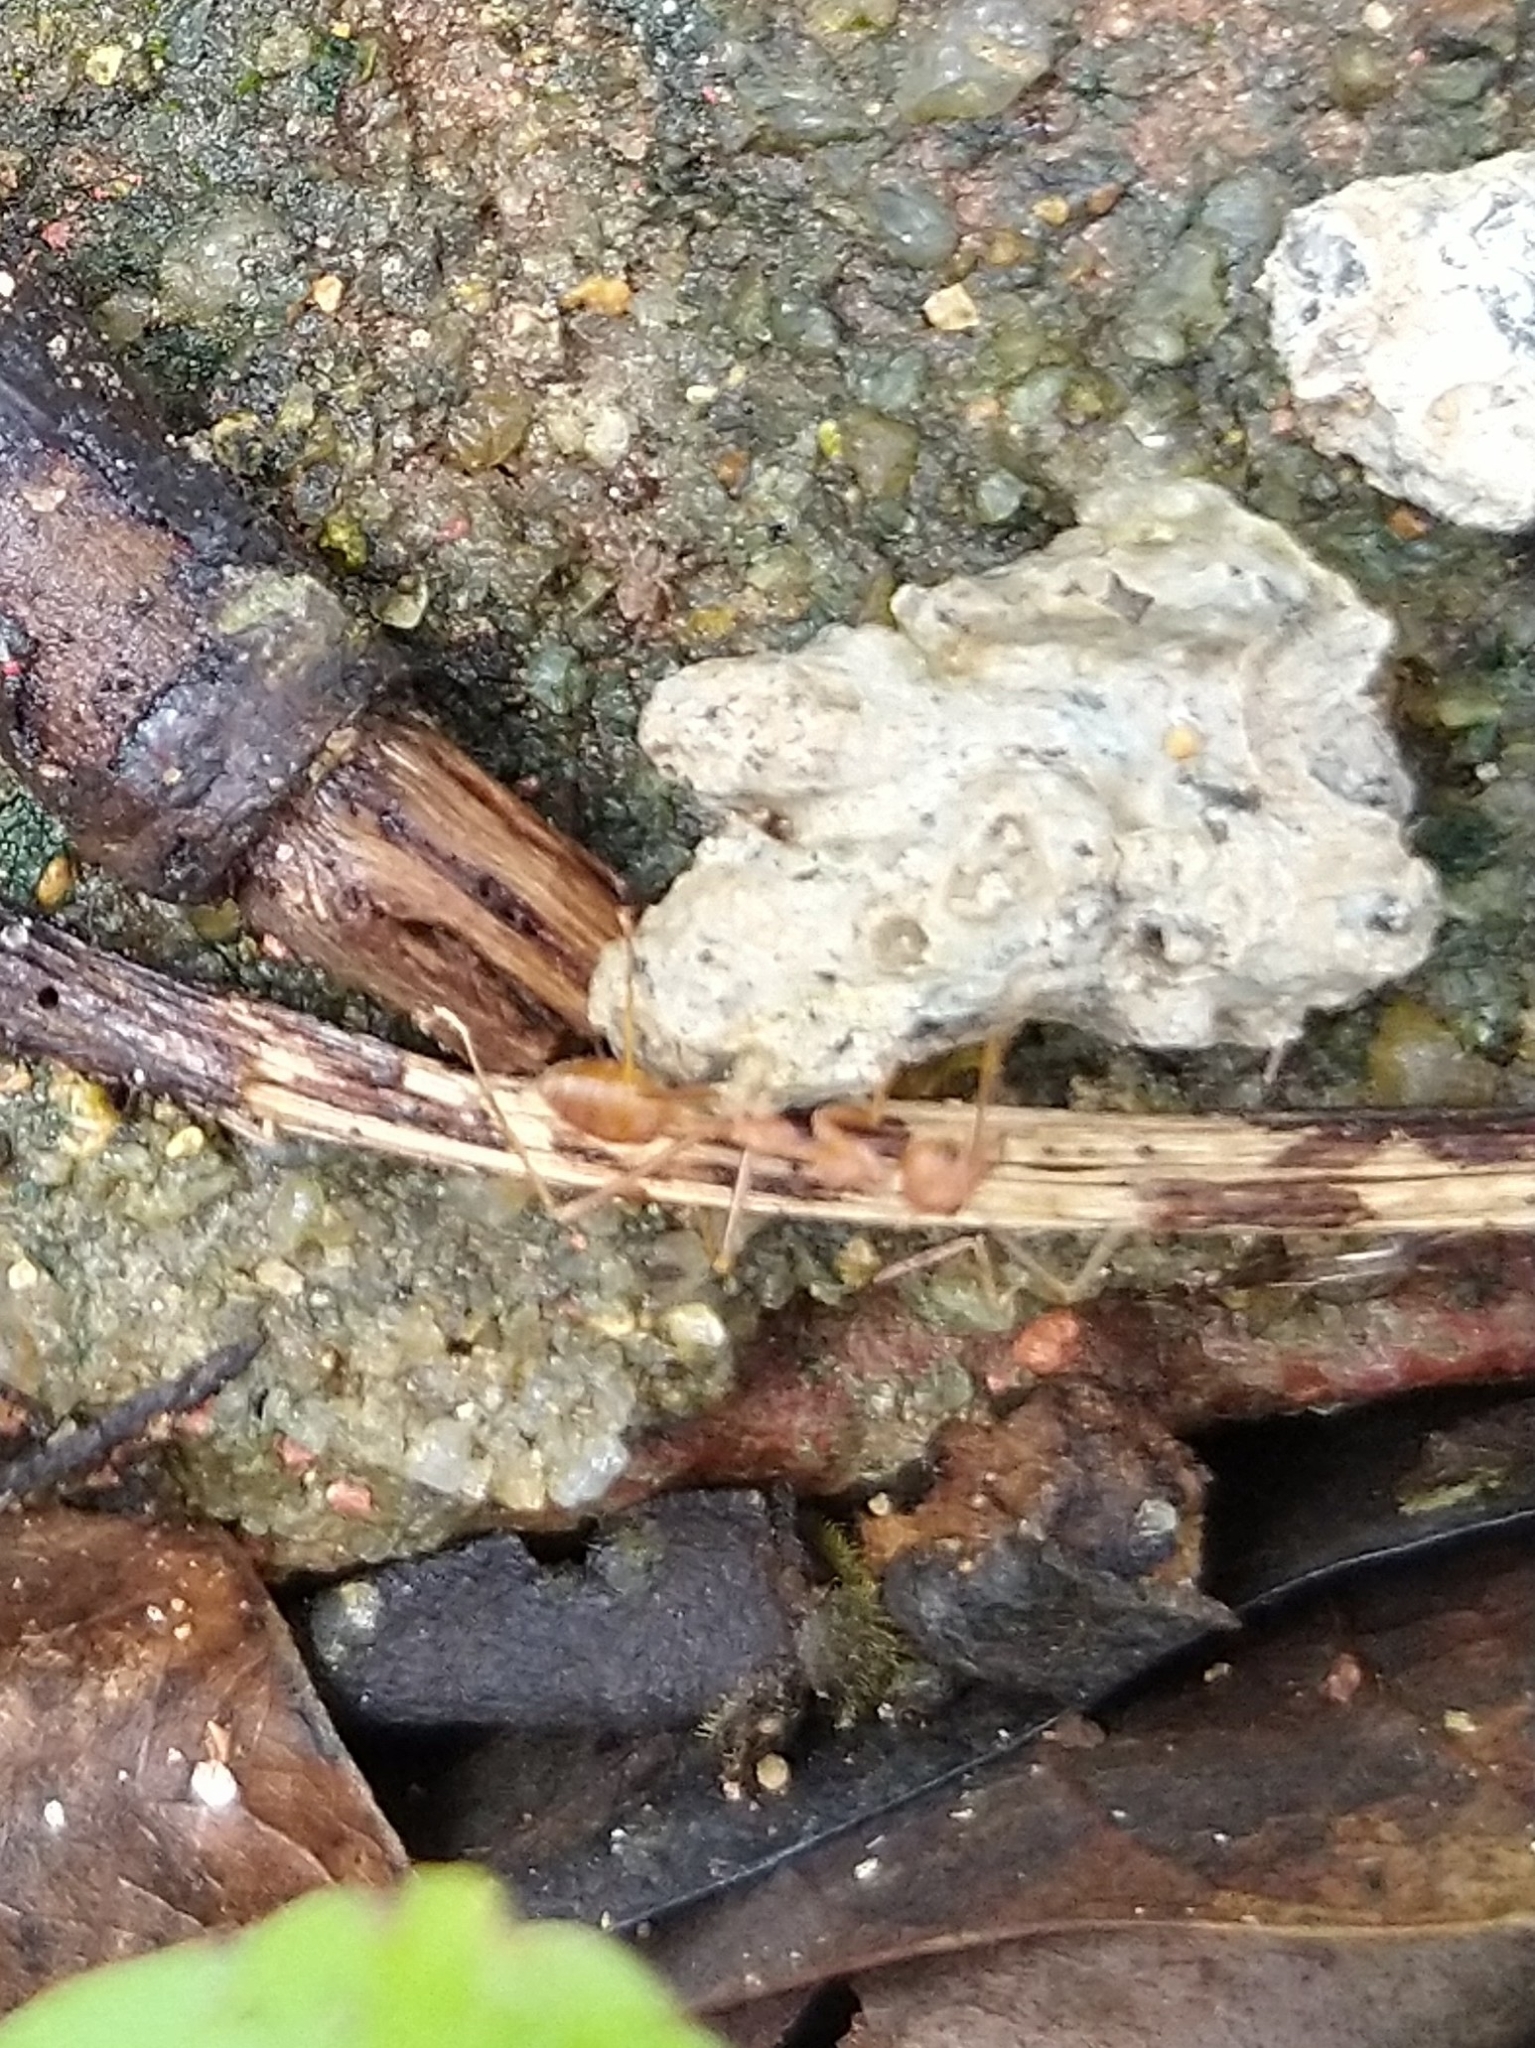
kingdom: Animalia
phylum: Arthropoda
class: Insecta
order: Hymenoptera
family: Formicidae
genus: Oecophylla
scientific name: Oecophylla smaragdina
